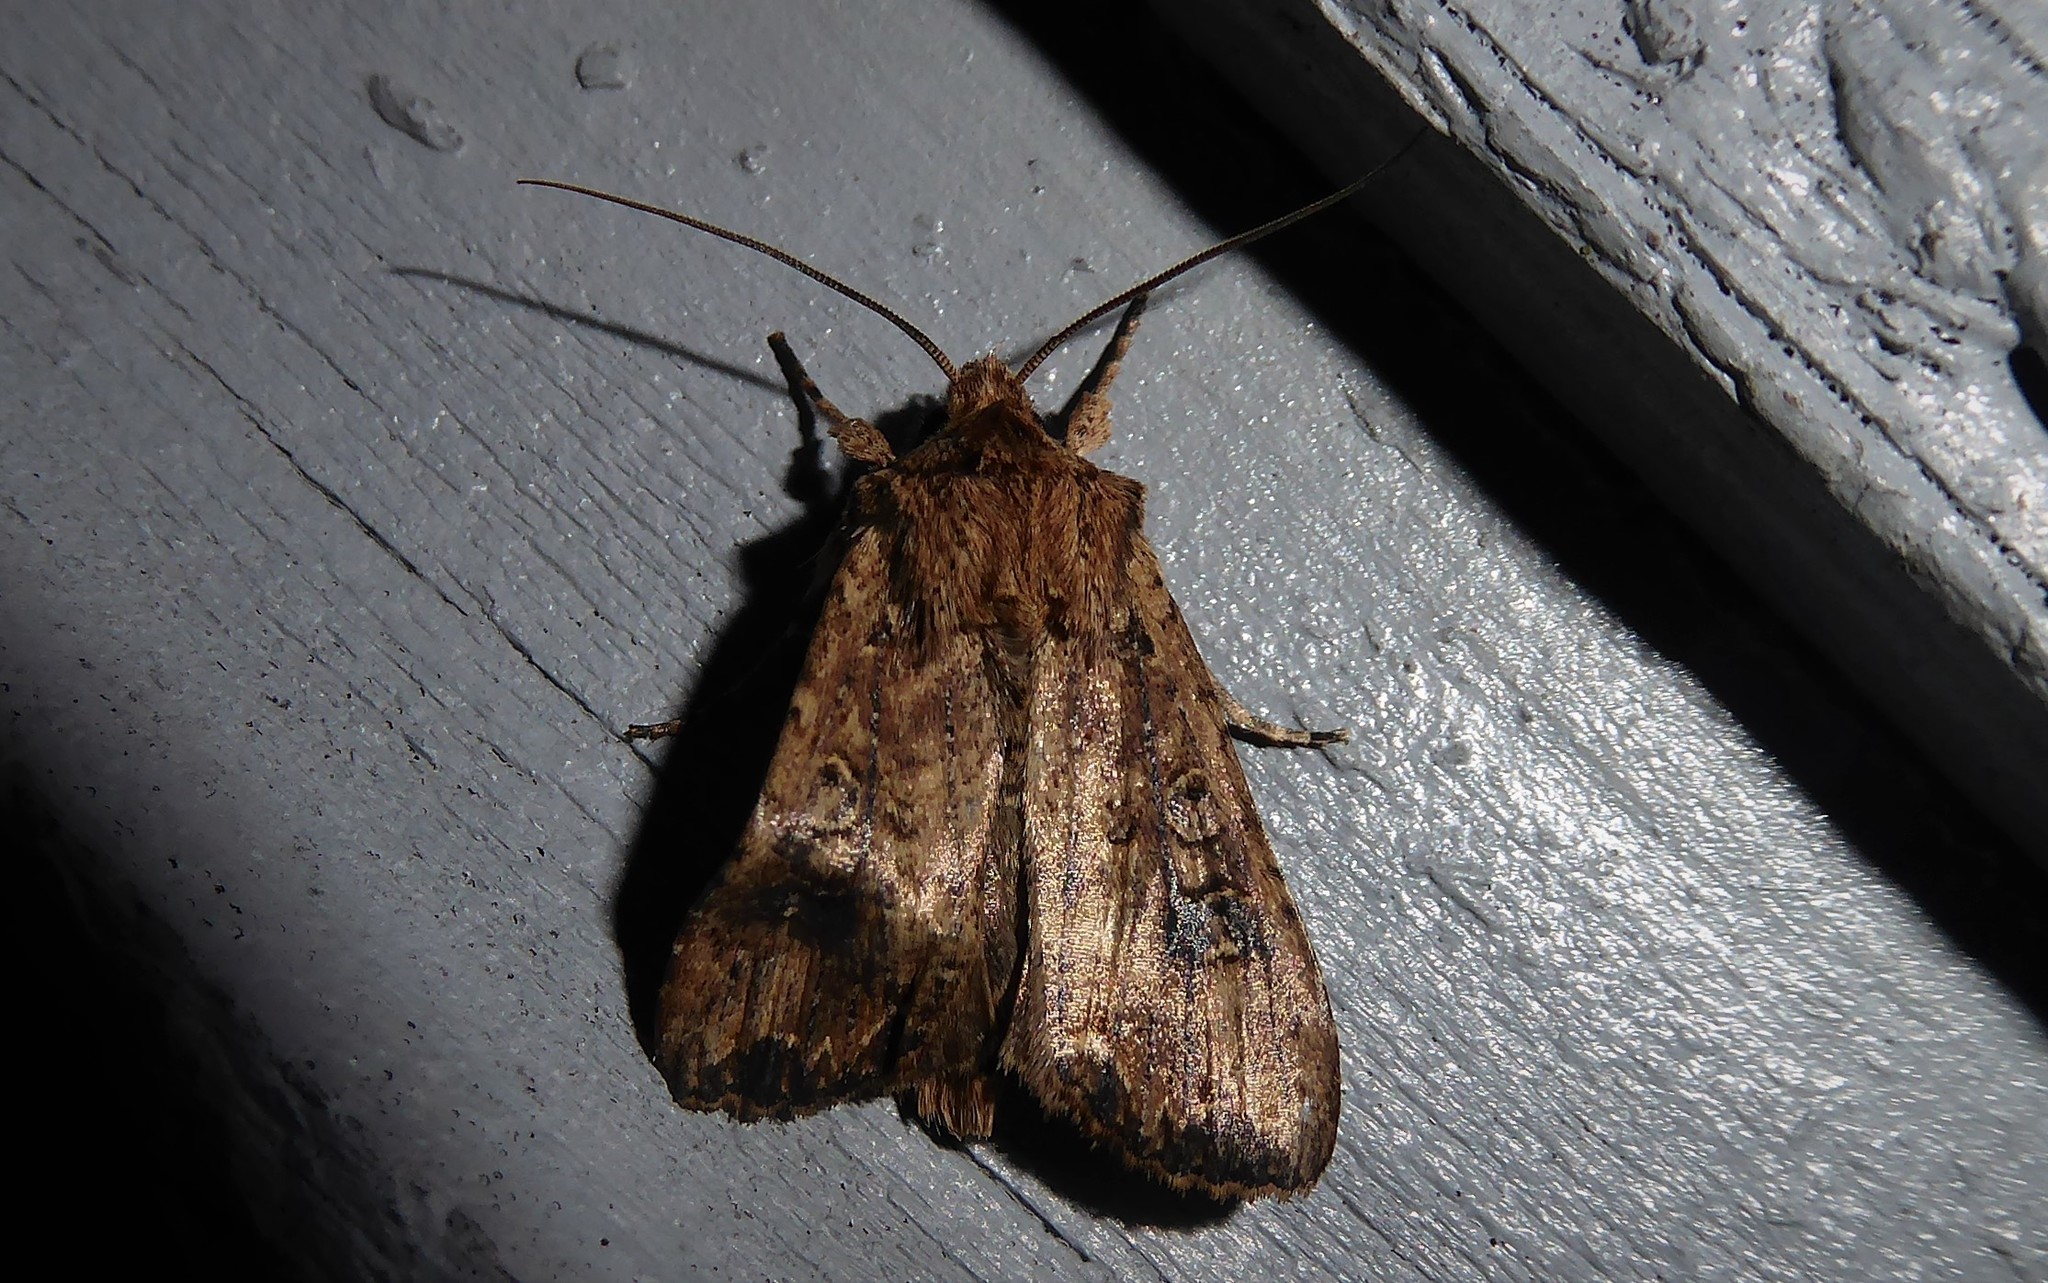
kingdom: Animalia
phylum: Arthropoda
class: Insecta
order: Lepidoptera
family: Noctuidae
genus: Ichneutica
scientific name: Ichneutica morosa
